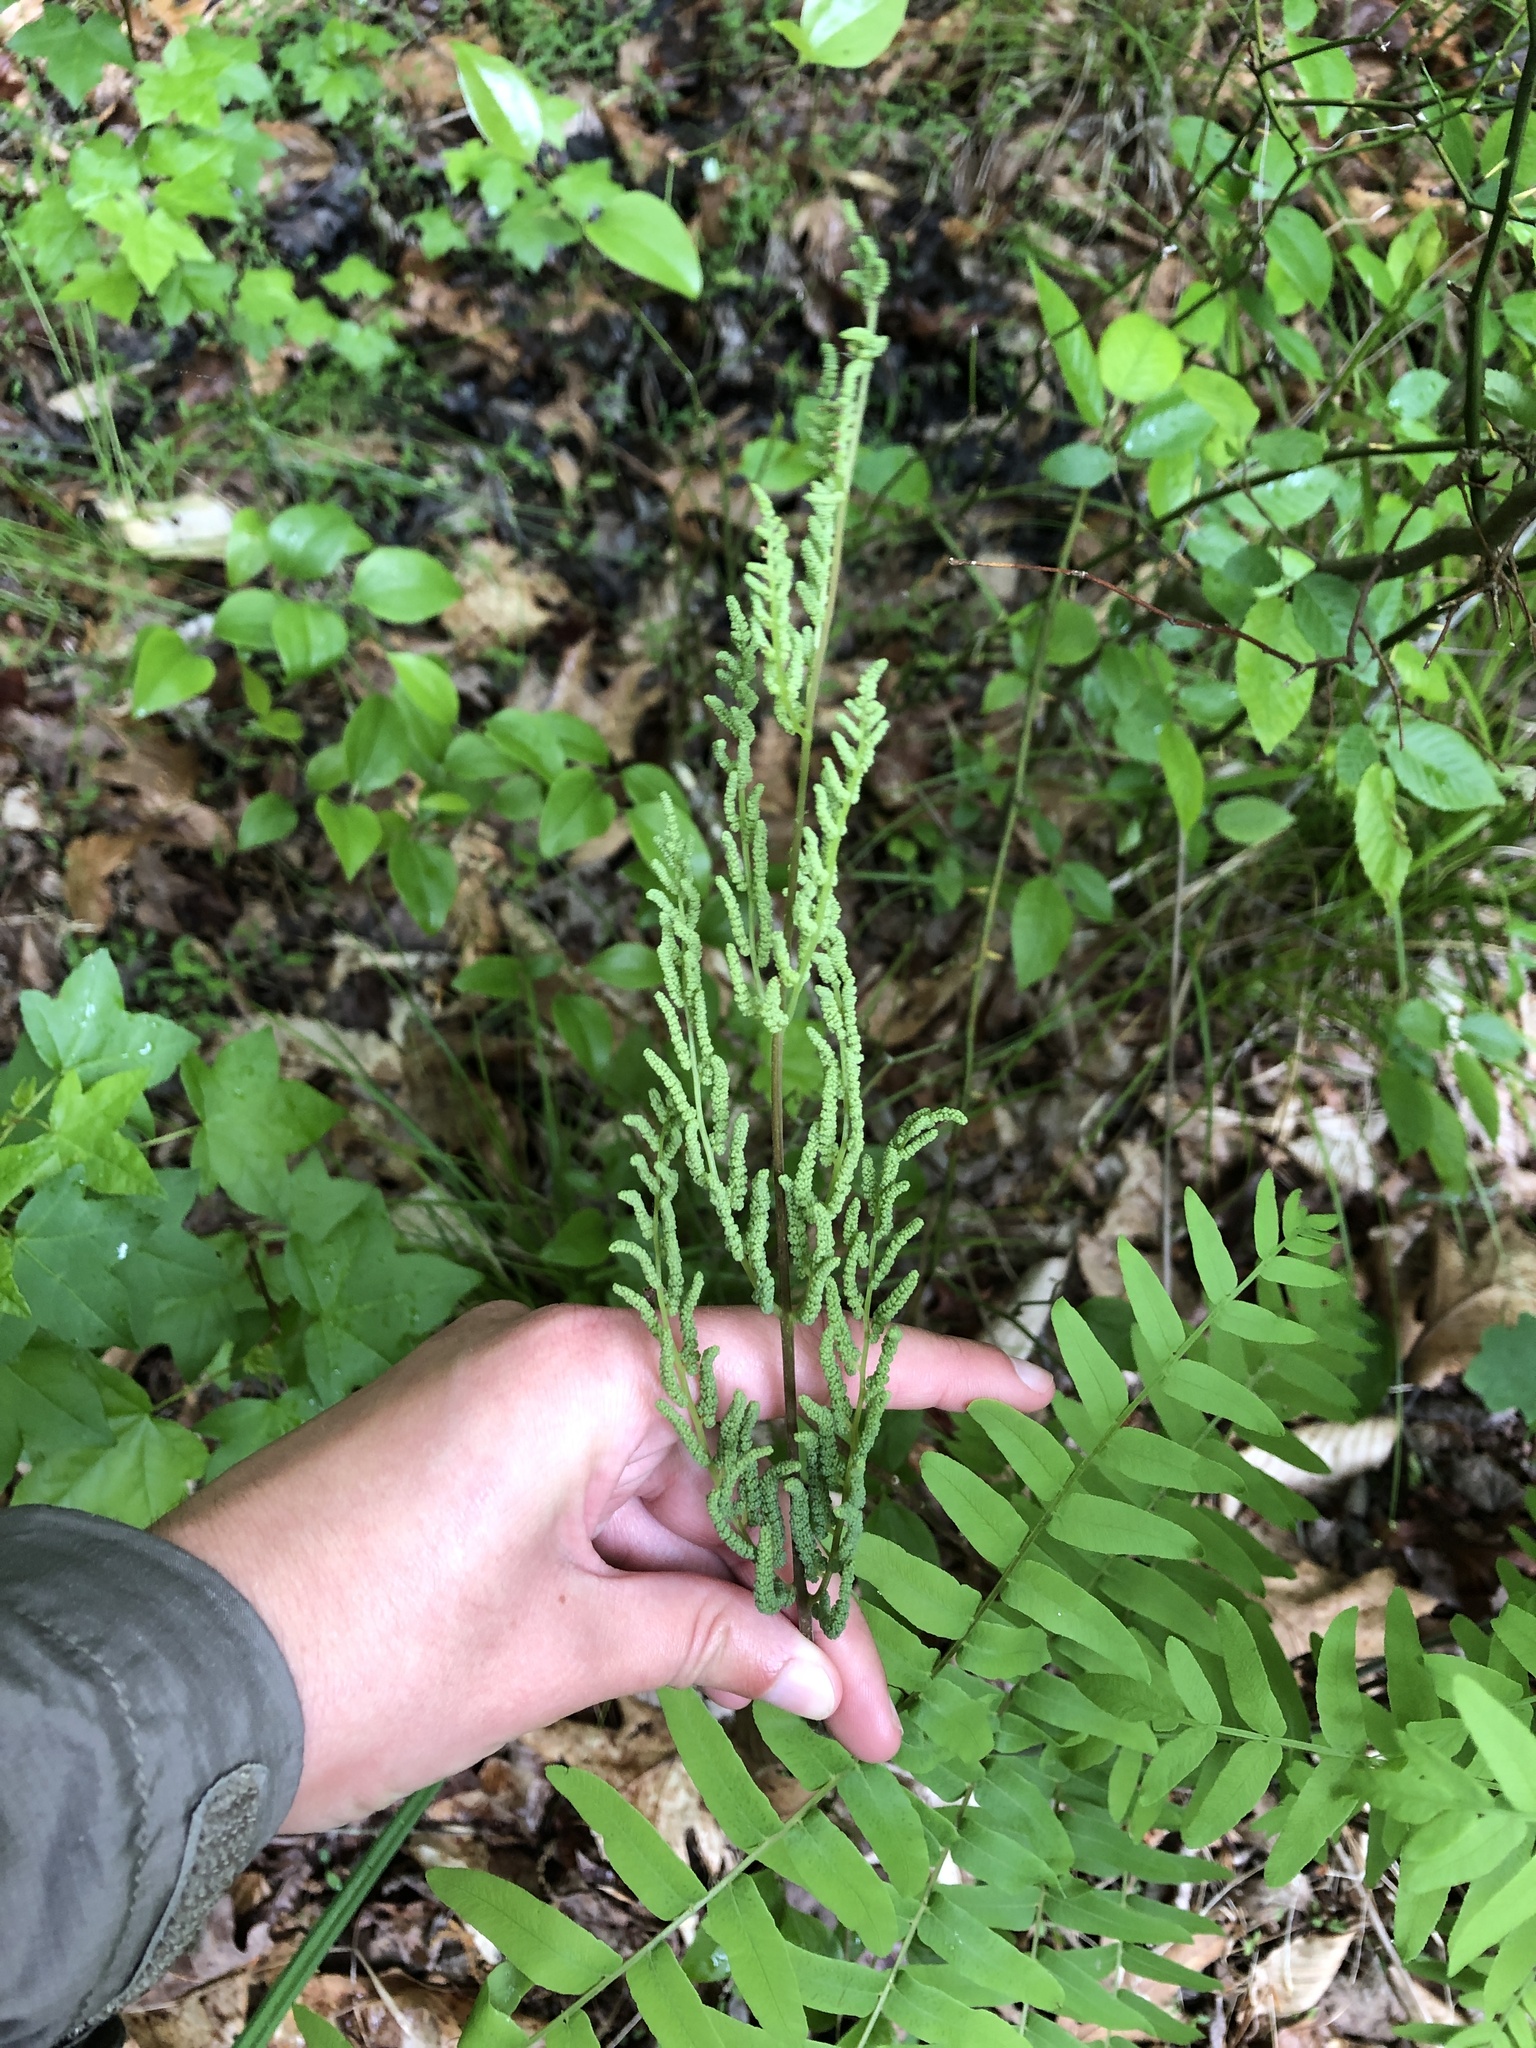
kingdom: Plantae
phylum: Tracheophyta
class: Polypodiopsida
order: Osmundales
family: Osmundaceae
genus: Osmunda
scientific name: Osmunda spectabilis
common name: American royal fern
